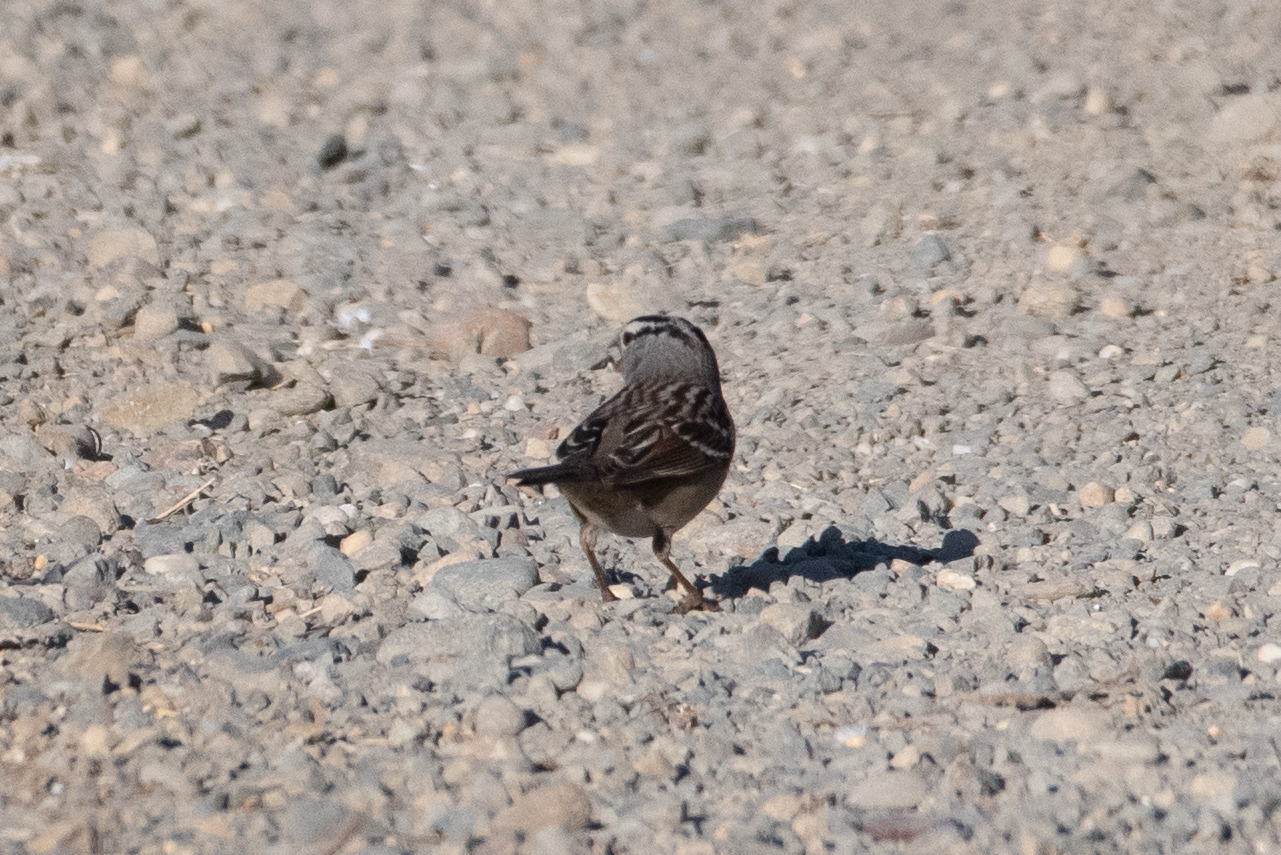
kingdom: Animalia
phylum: Chordata
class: Aves
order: Passeriformes
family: Passerellidae
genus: Zonotrichia
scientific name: Zonotrichia leucophrys
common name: White-crowned sparrow
